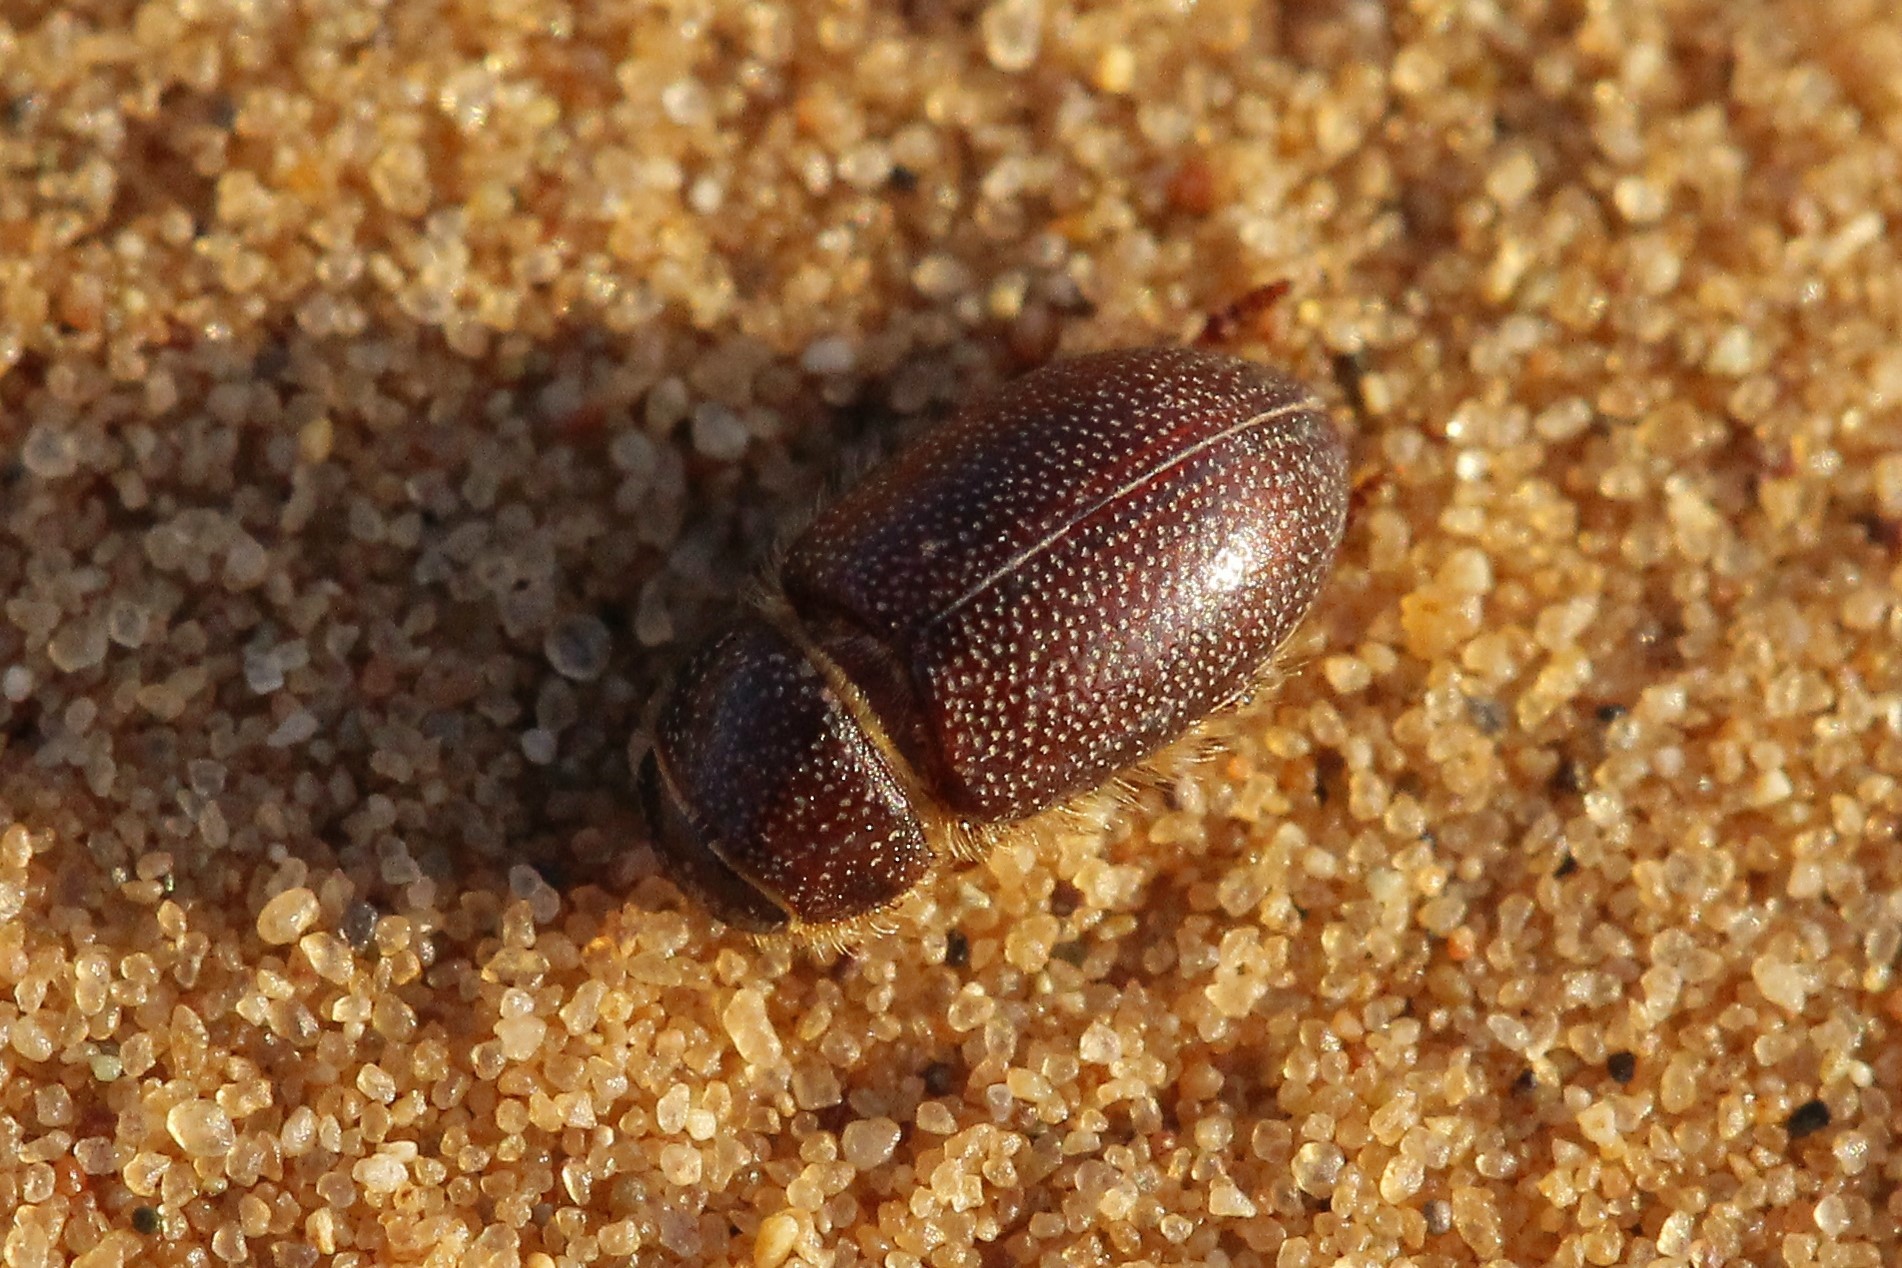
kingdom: Animalia
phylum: Arthropoda
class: Insecta
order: Coleoptera
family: Scarabaeidae
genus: Eremazus
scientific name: Eremazus cribratus
